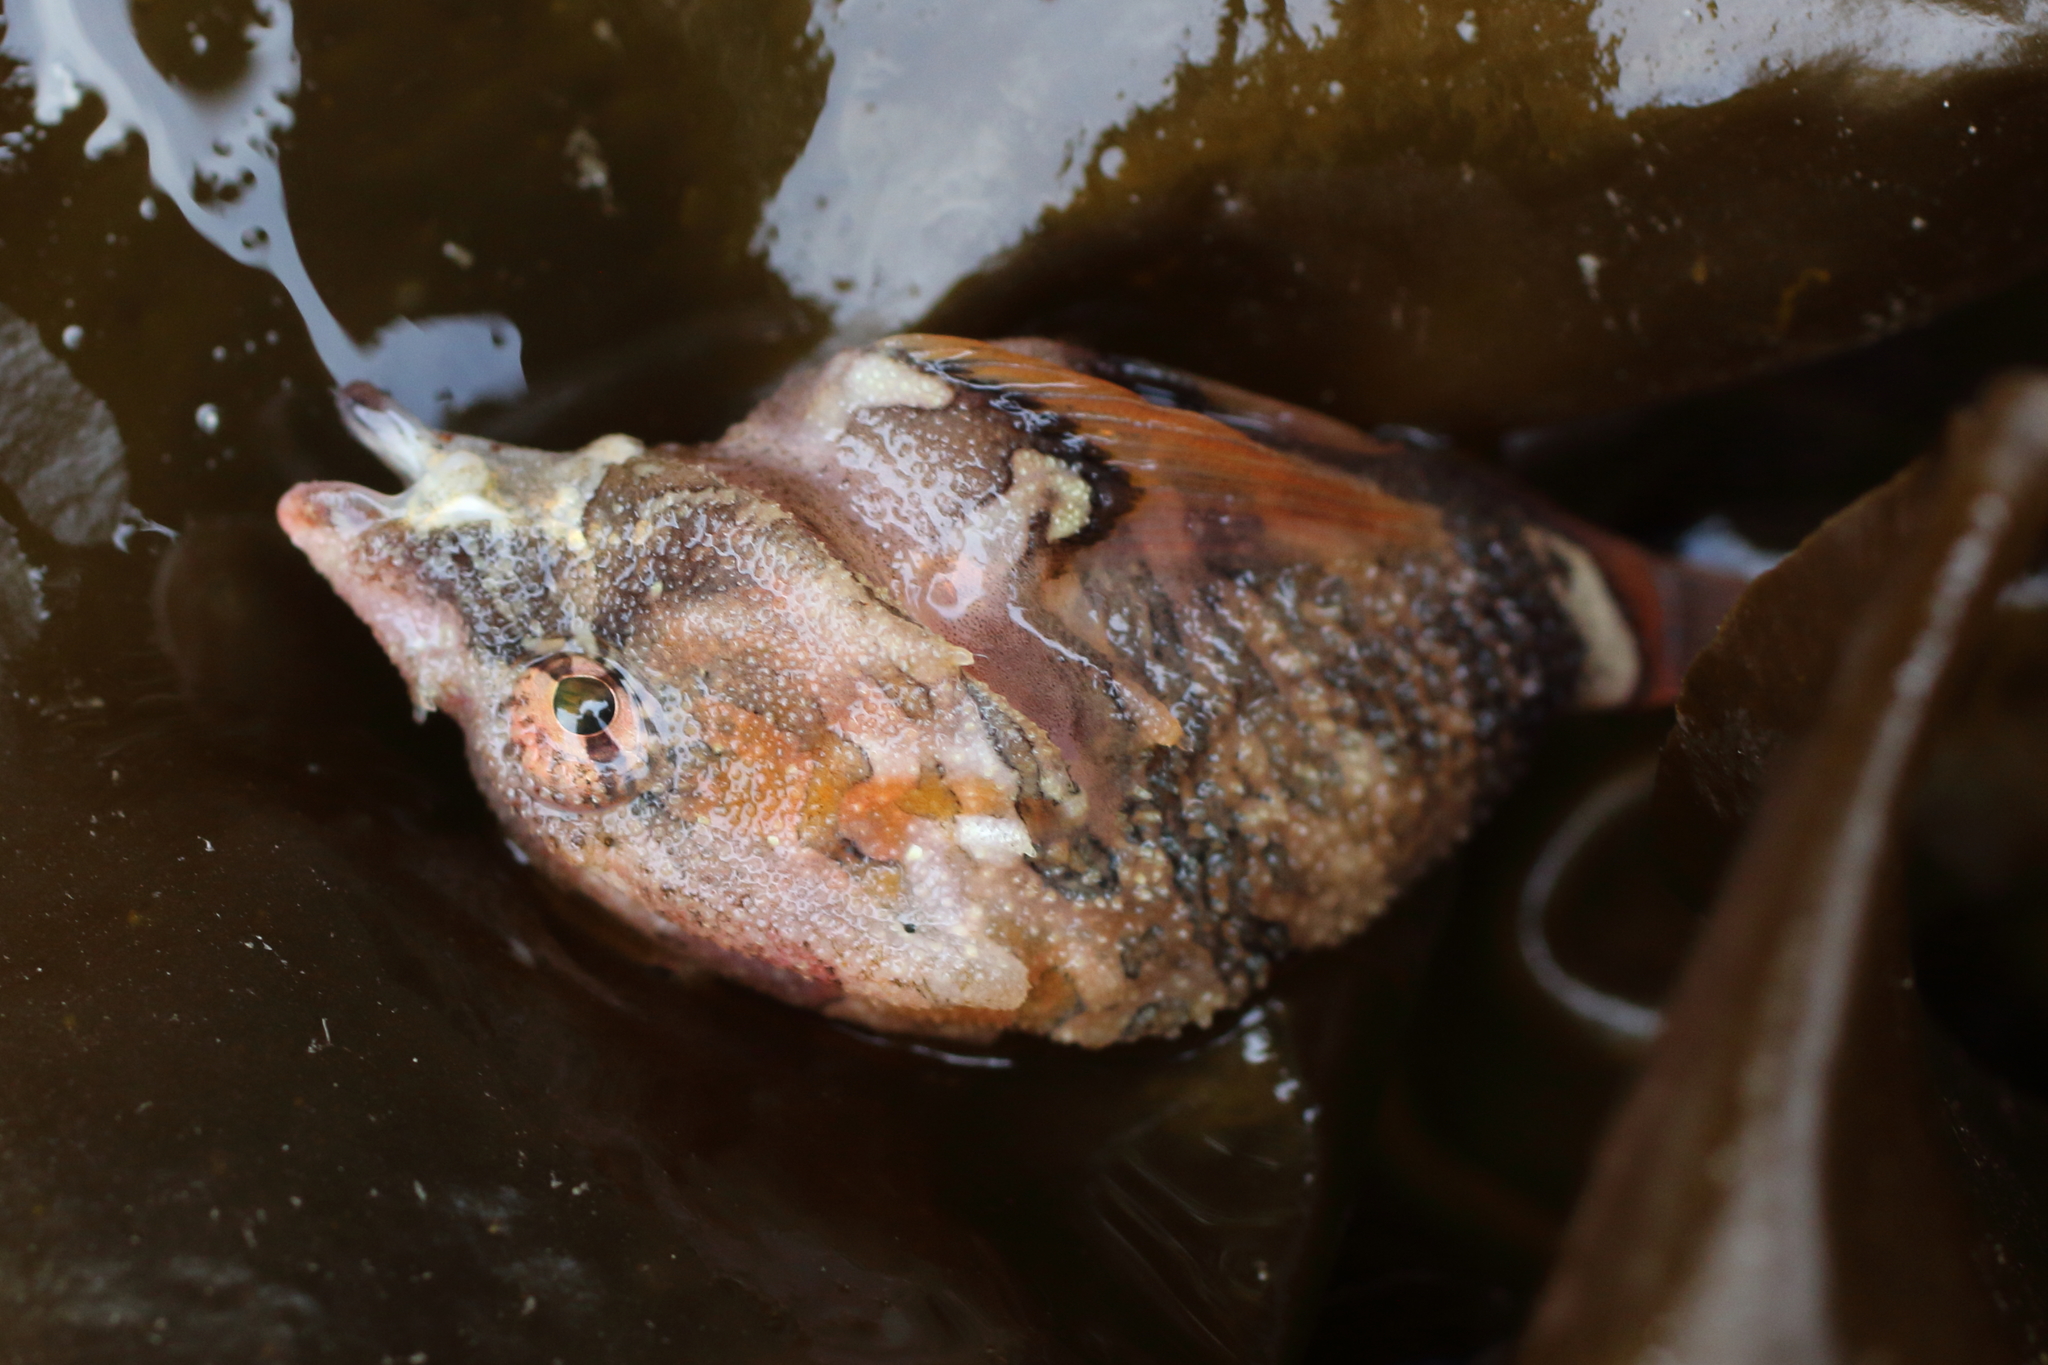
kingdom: Animalia
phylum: Chordata
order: Scorpaeniformes
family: Rhamphocottidae
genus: Rhamphocottus
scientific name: Rhamphocottus richardsonii
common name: Grunt sculpin
